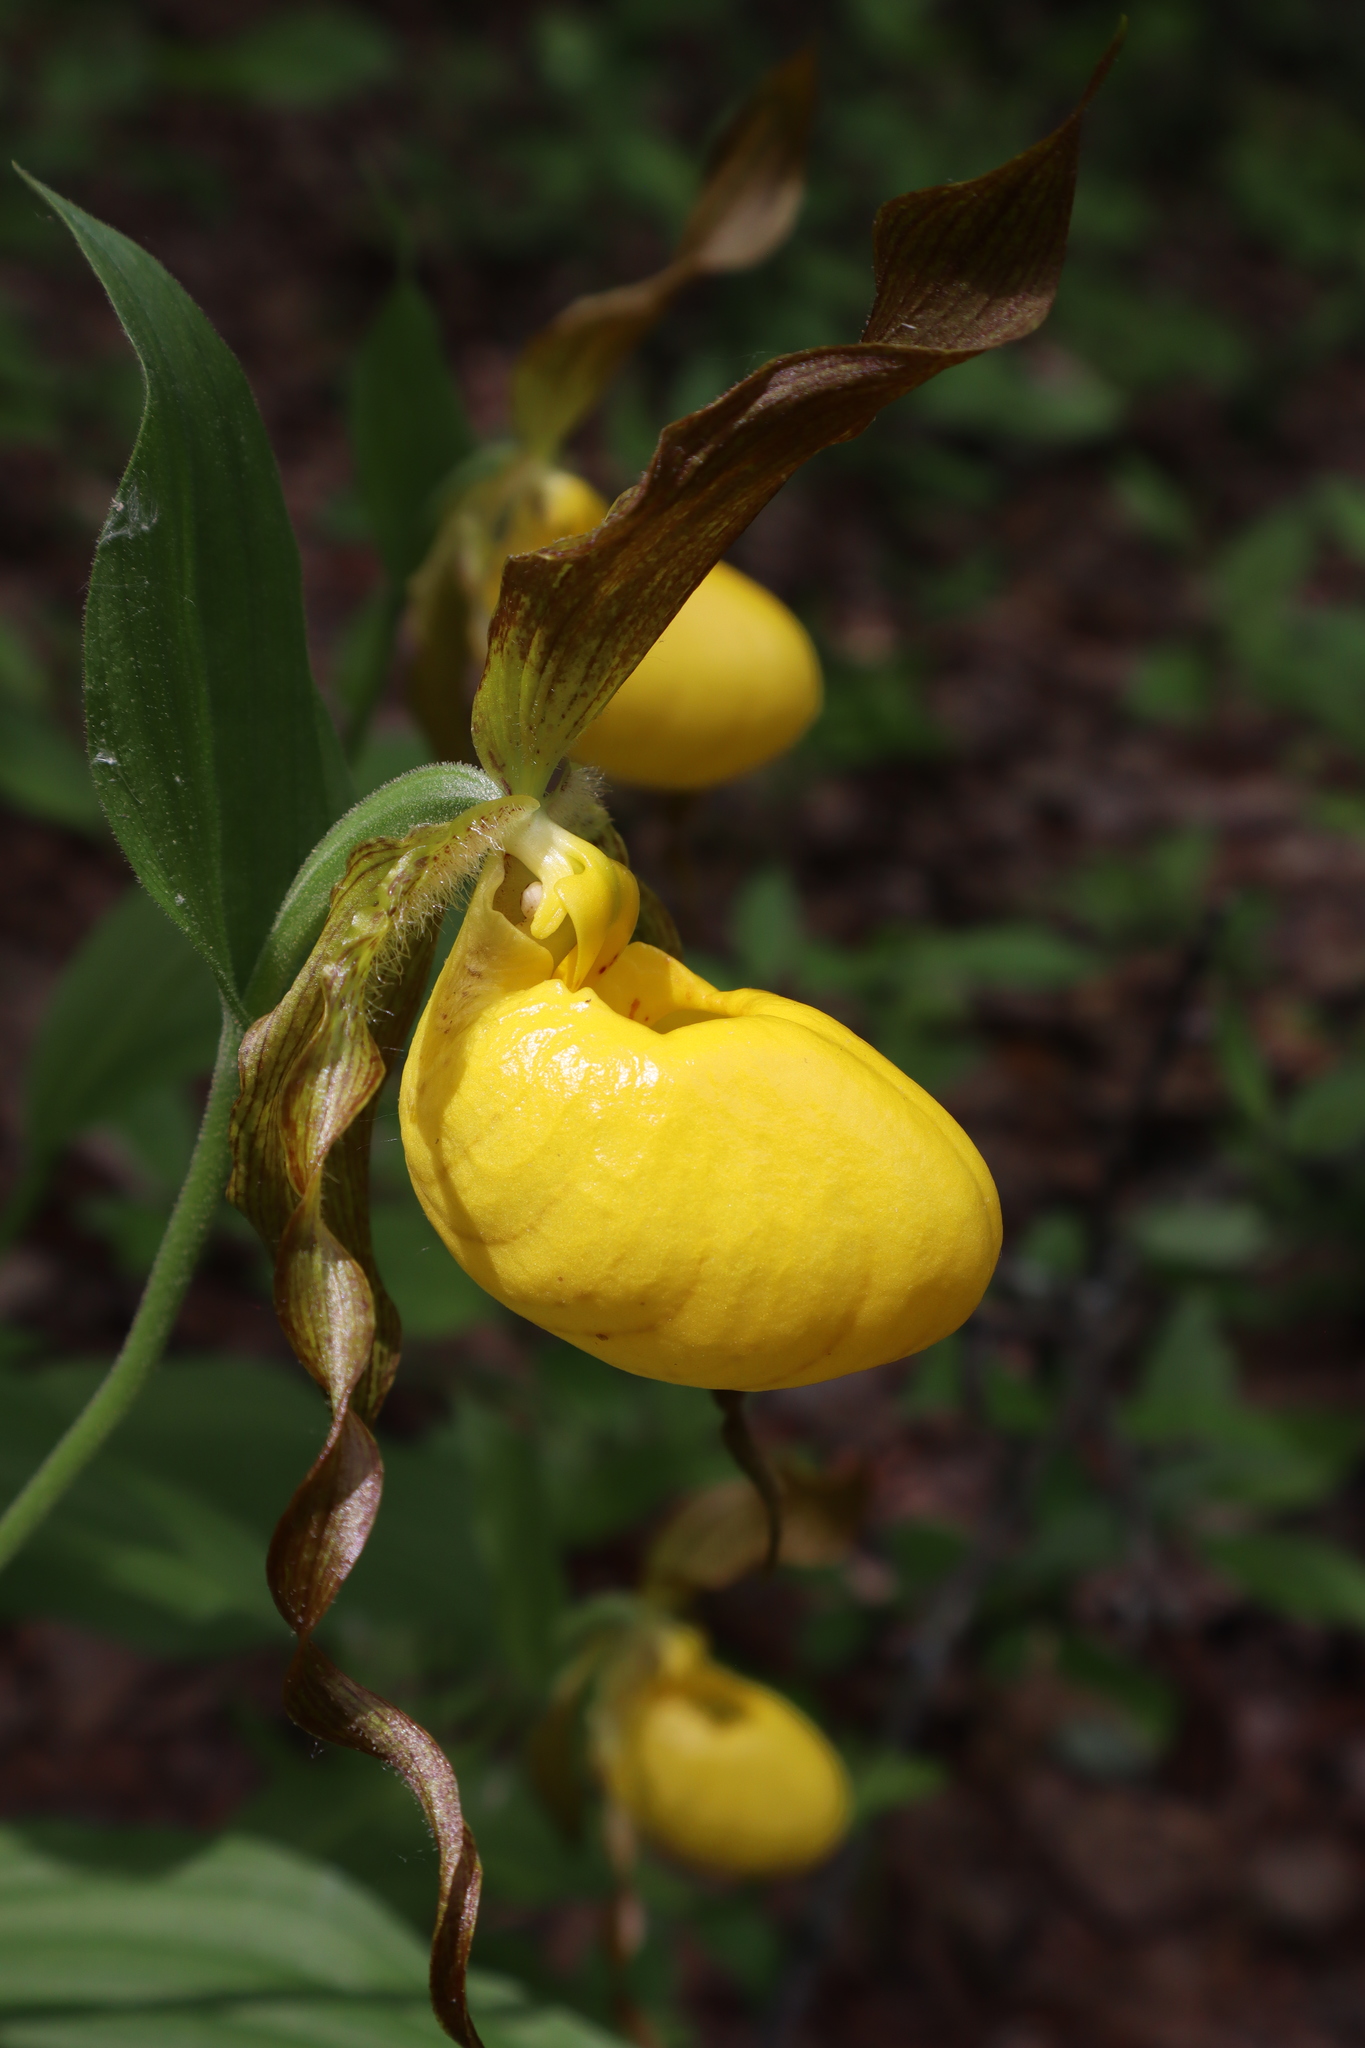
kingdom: Plantae
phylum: Tracheophyta
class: Liliopsida
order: Asparagales
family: Orchidaceae
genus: Cypripedium
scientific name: Cypripedium parviflorum
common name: American yellow lady's-slipper
